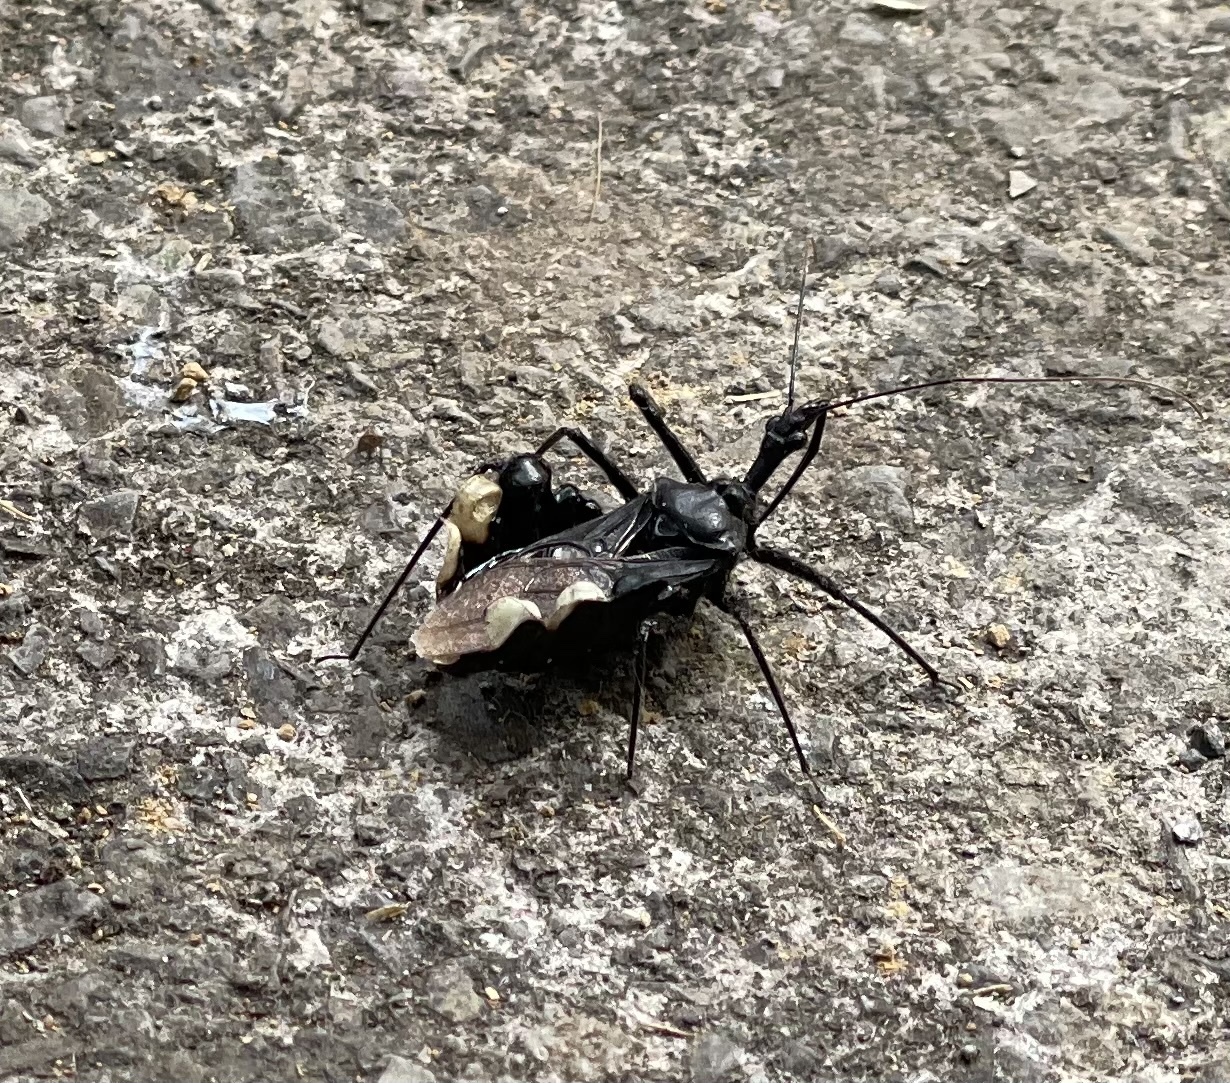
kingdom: Animalia
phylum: Arthropoda
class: Insecta
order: Hemiptera
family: Reduviidae
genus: Yolinus
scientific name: Yolinus albopustulatus
